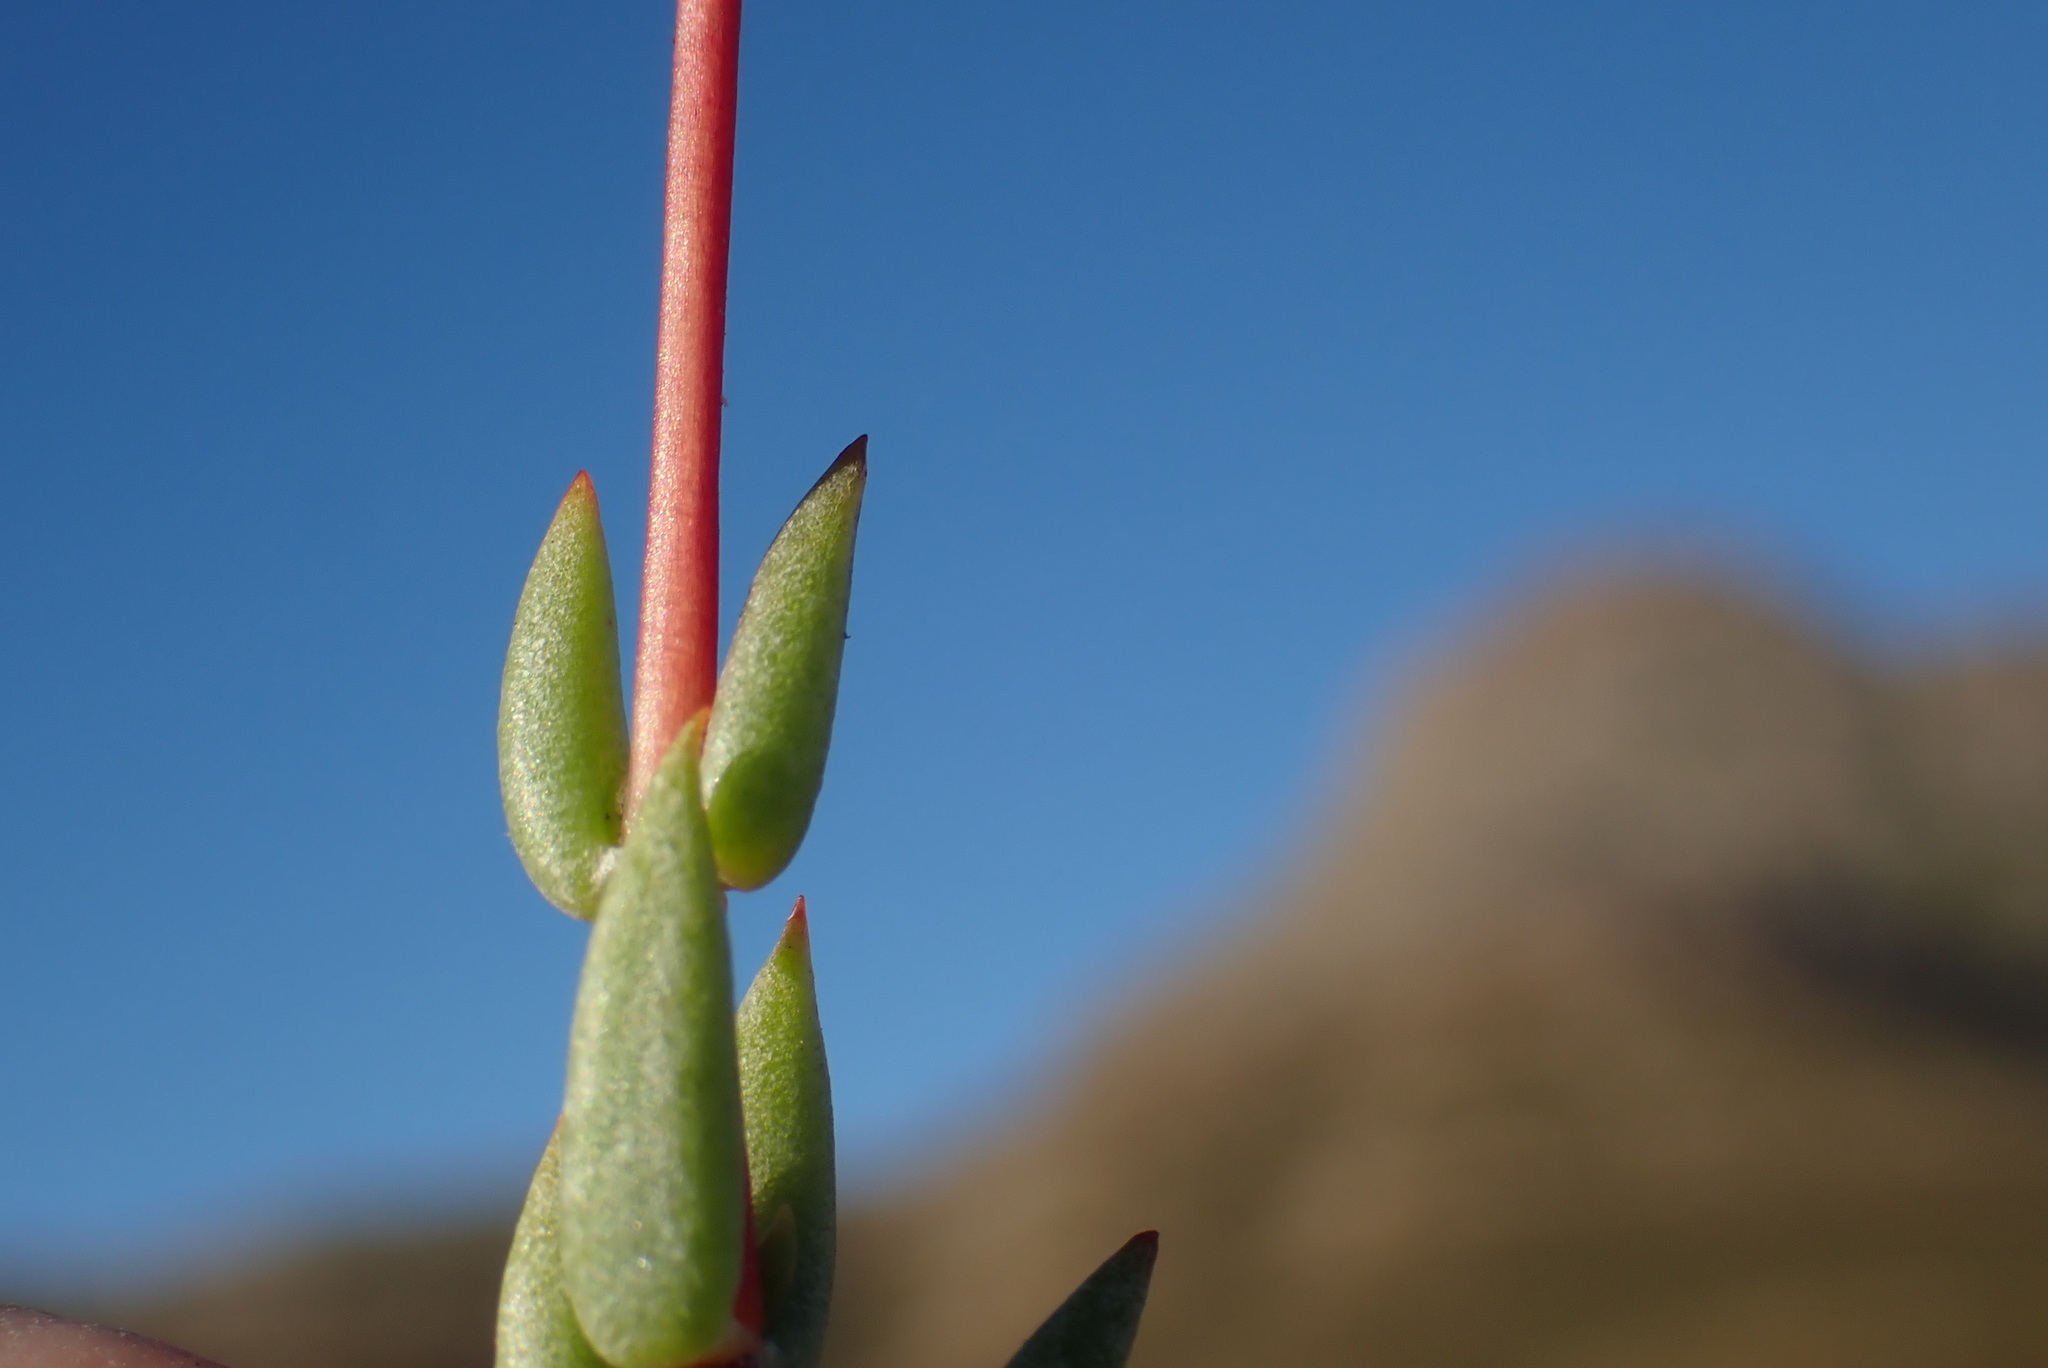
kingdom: Plantae
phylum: Tracheophyta
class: Magnoliopsida
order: Saxifragales
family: Crassulaceae
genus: Crassula
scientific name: Crassula biplanata
